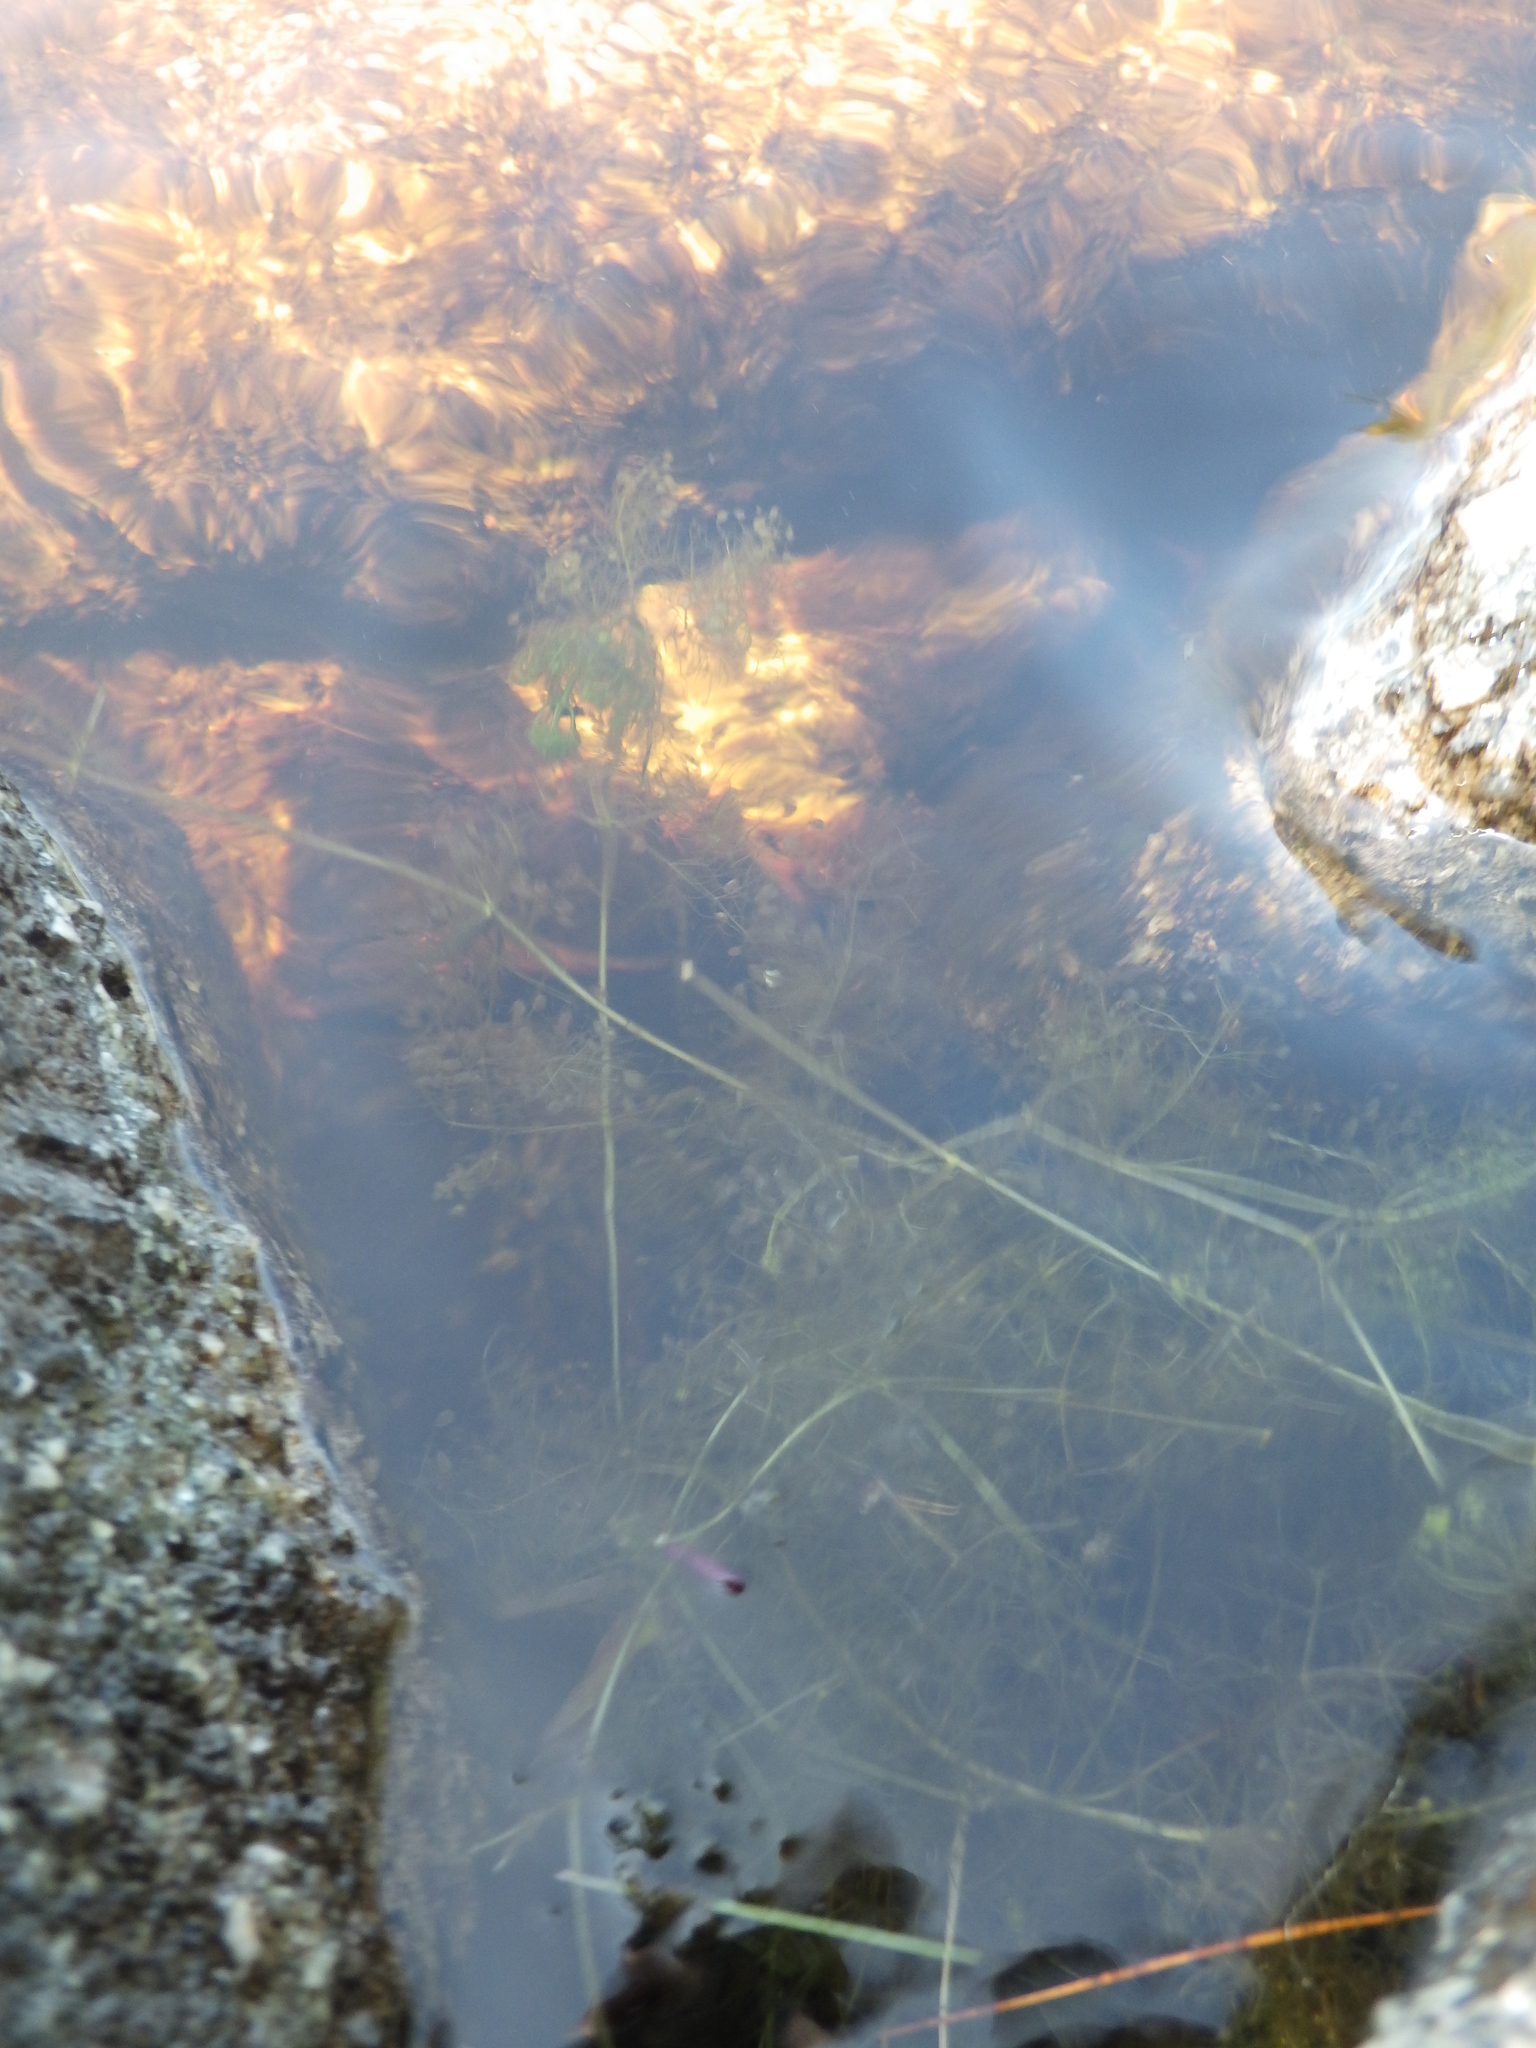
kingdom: Plantae
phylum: Tracheophyta
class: Magnoliopsida
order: Lamiales
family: Lentibulariaceae
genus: Utricularia
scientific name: Utricularia purpurea
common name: Eastern purple bladderwort
